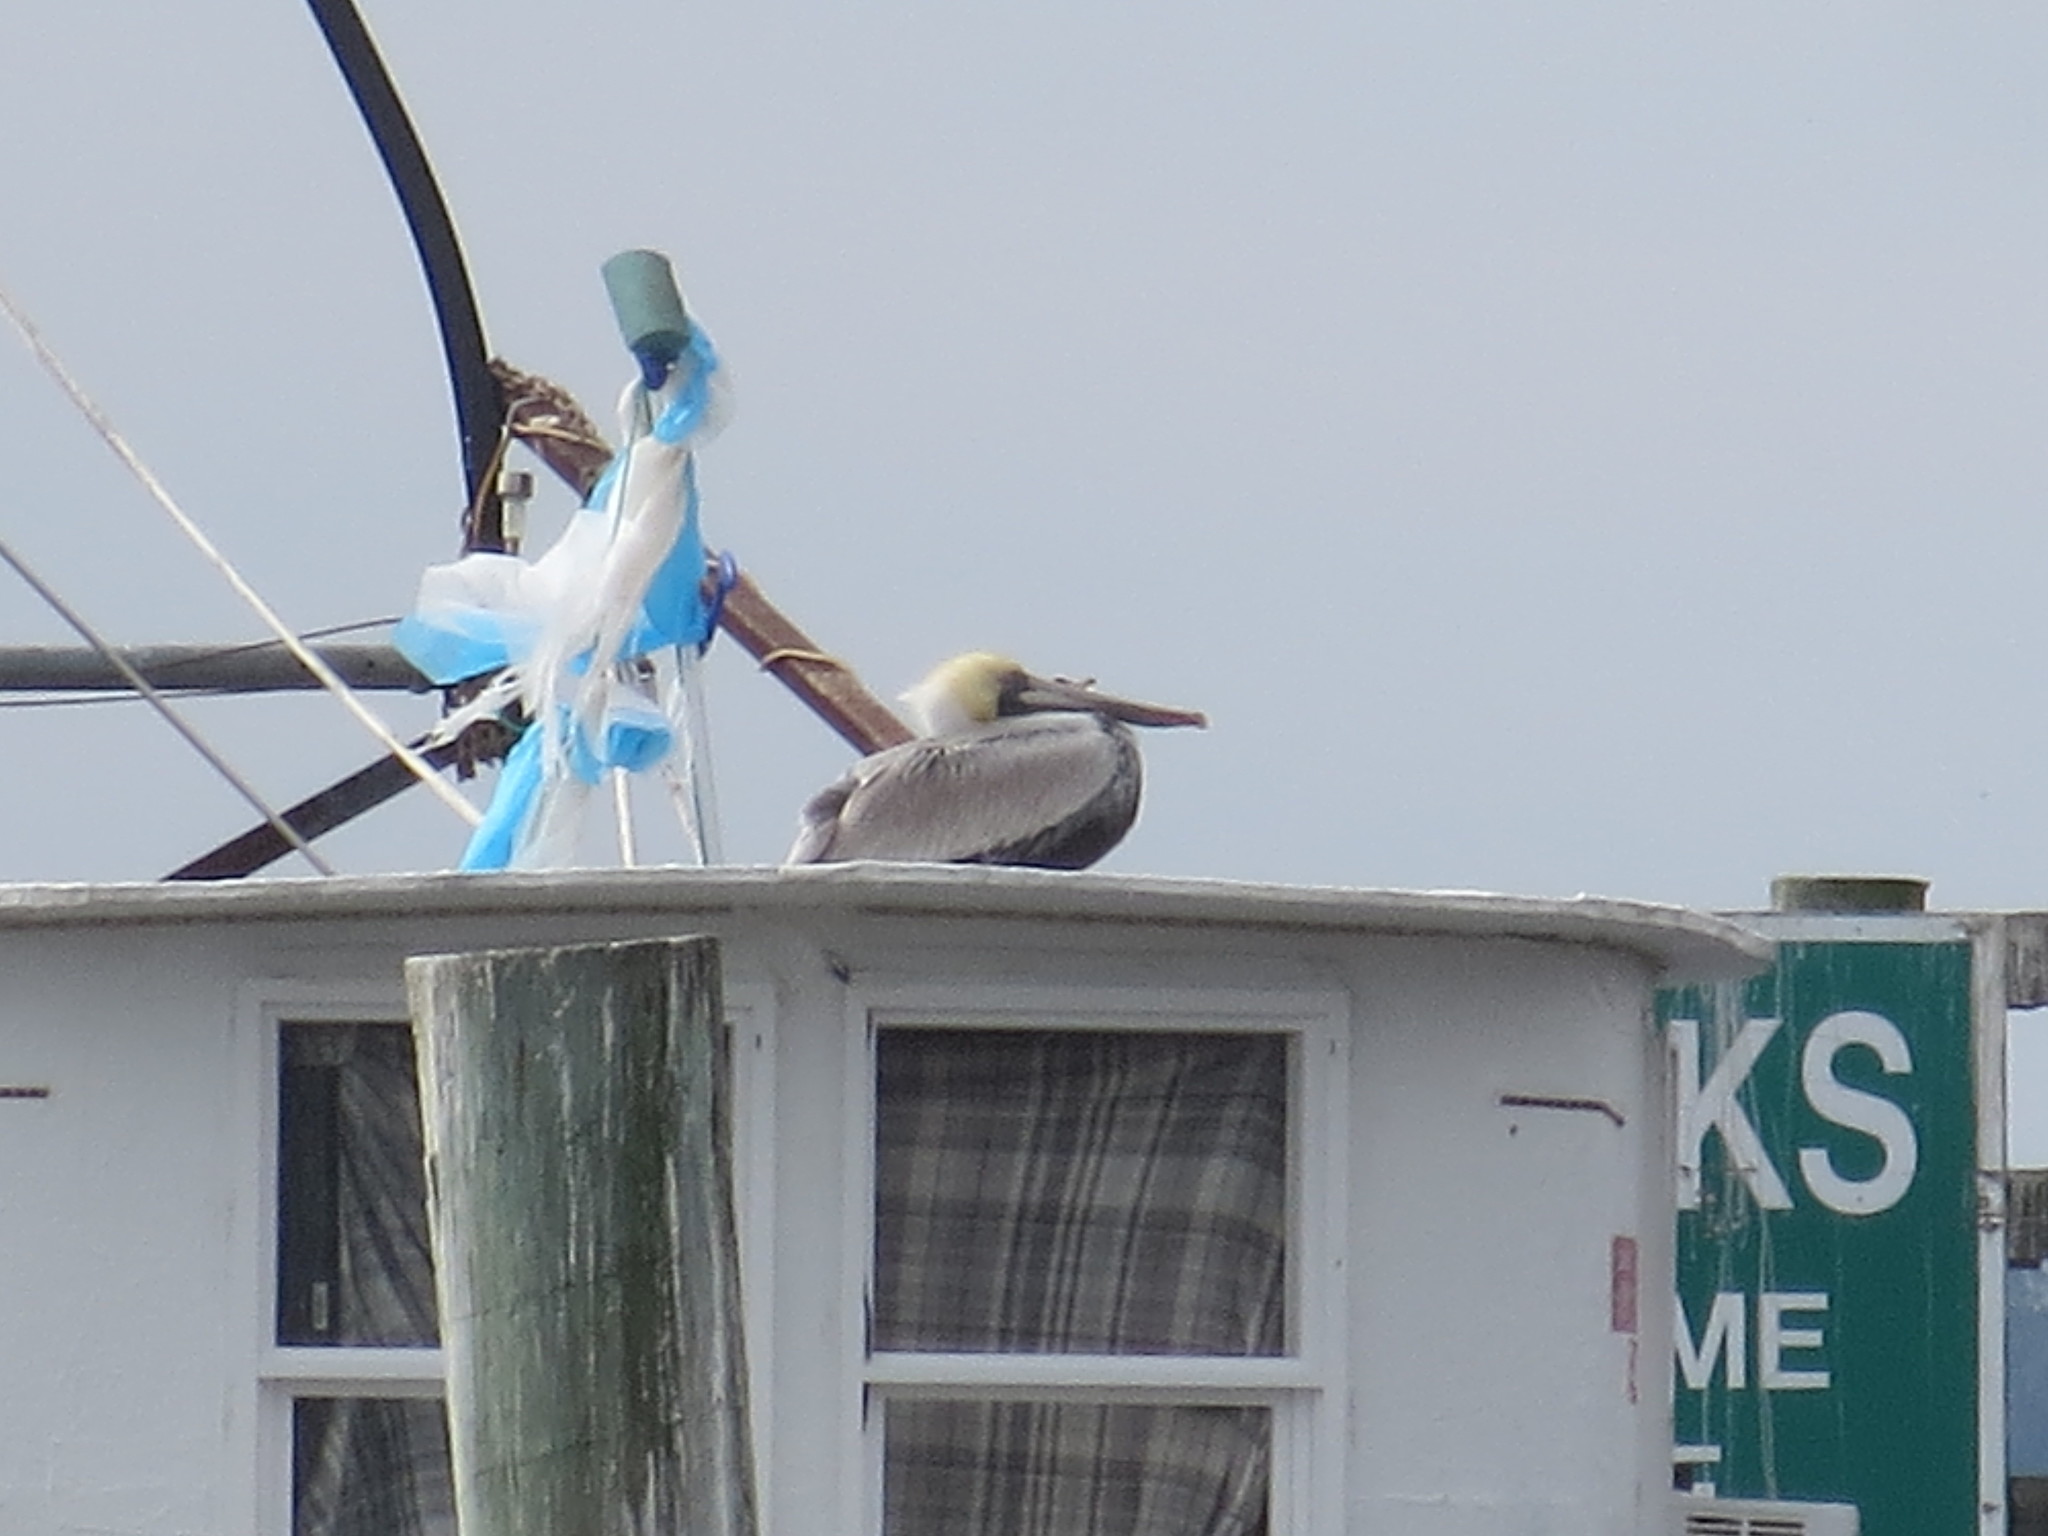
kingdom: Animalia
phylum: Chordata
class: Aves
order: Pelecaniformes
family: Pelecanidae
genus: Pelecanus
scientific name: Pelecanus occidentalis
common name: Brown pelican
